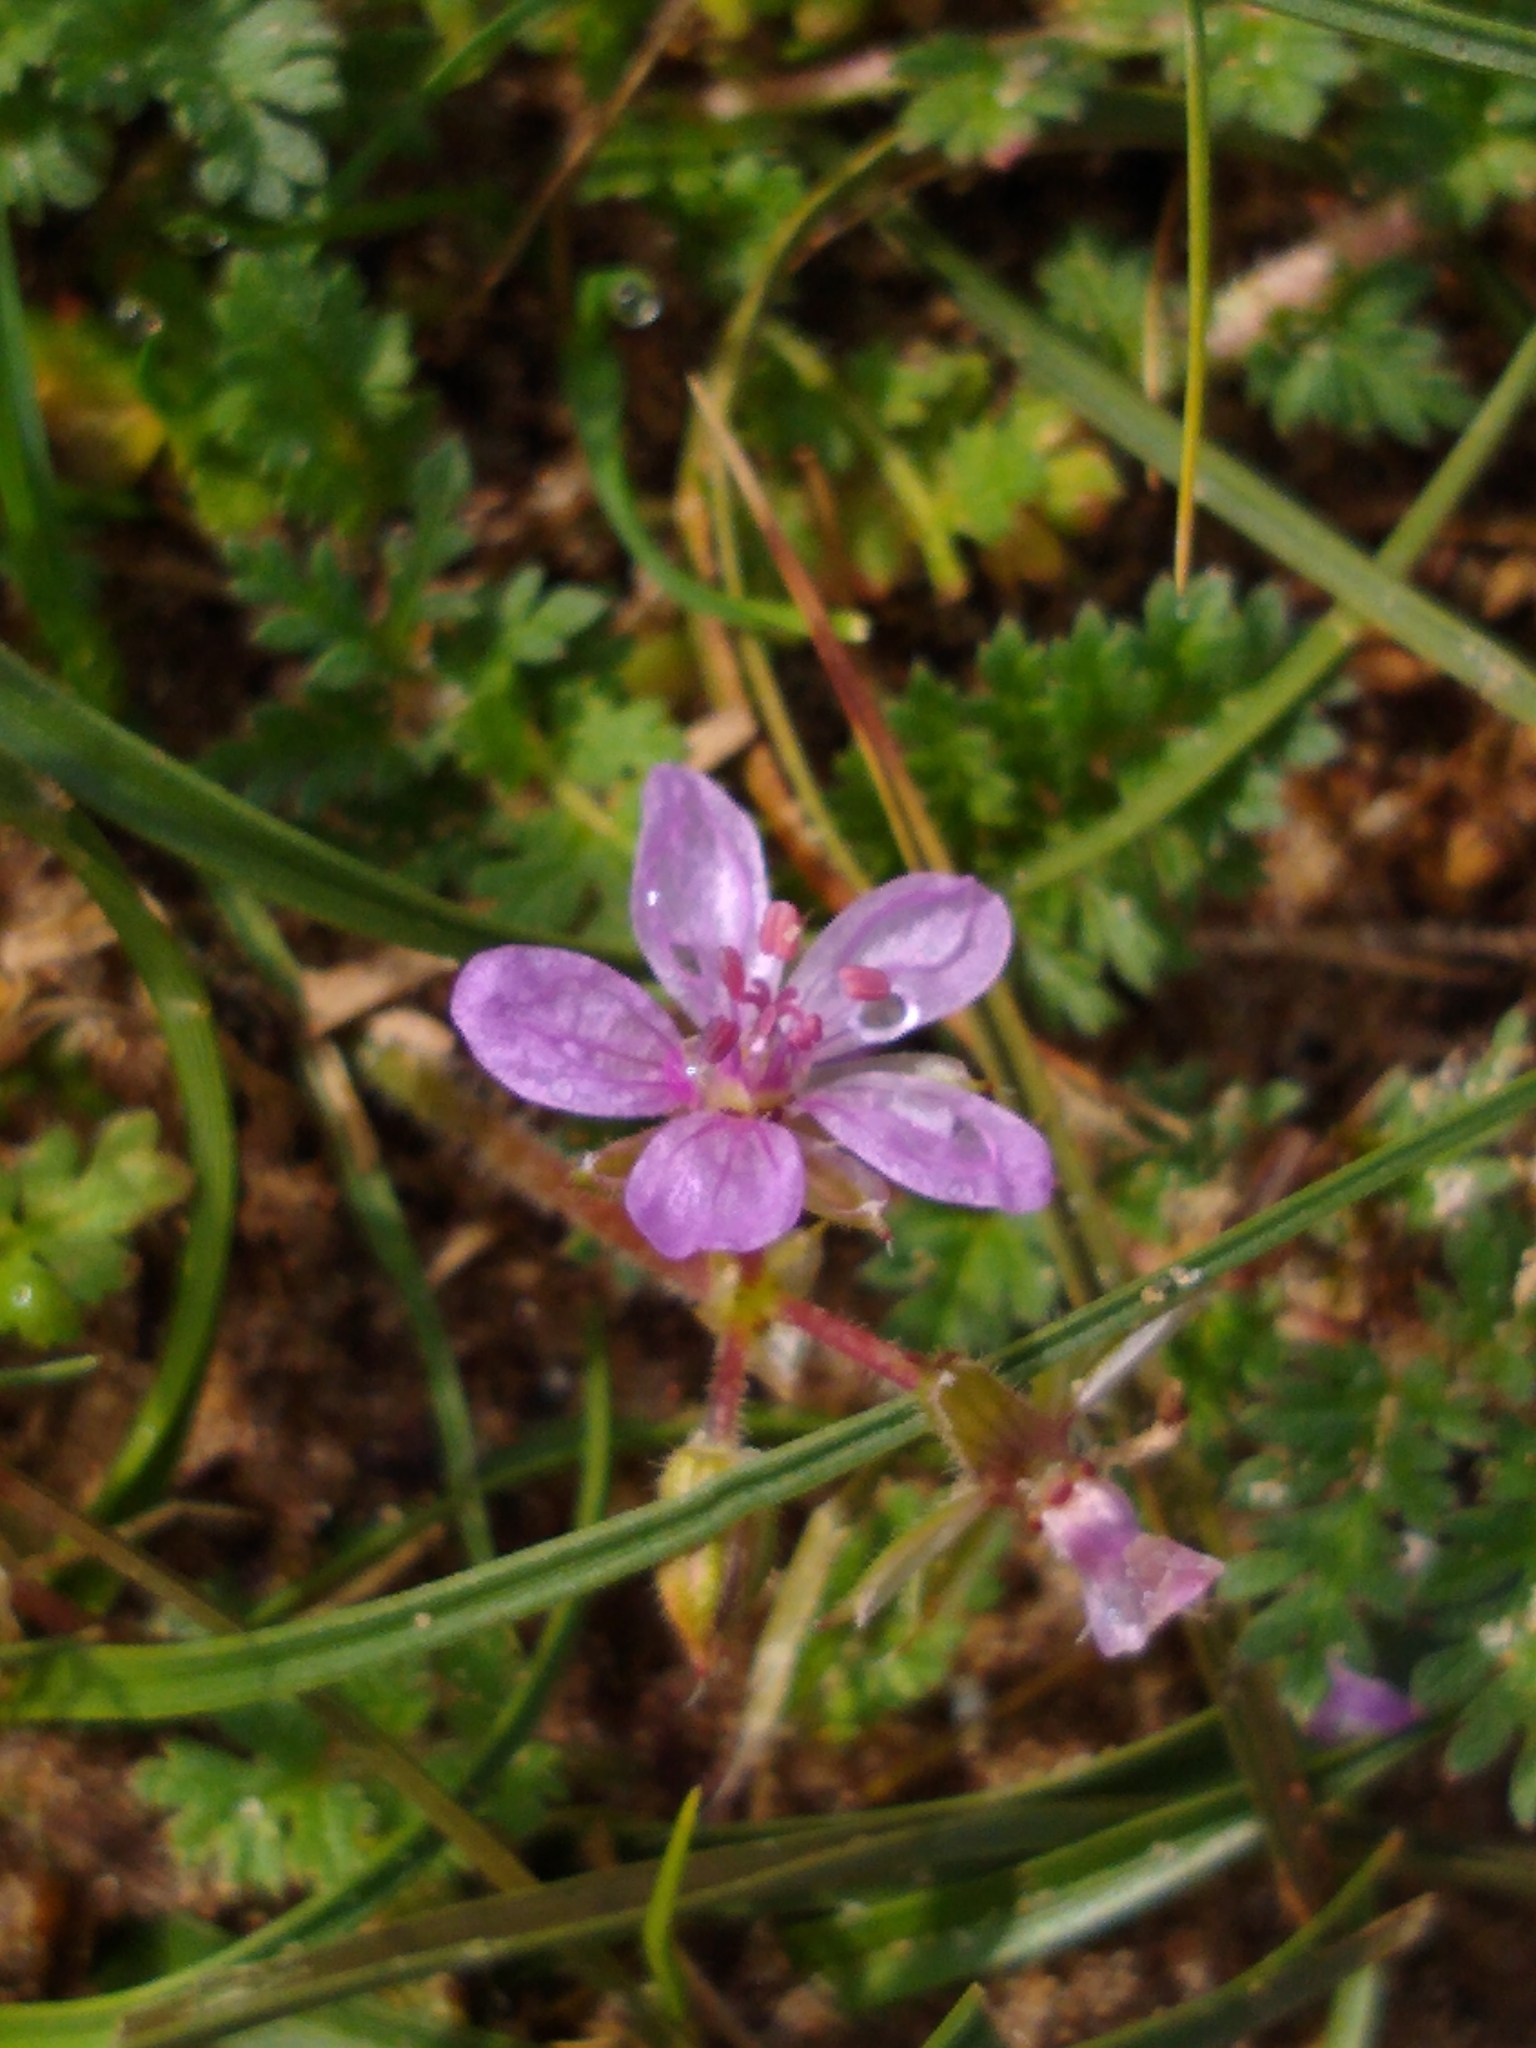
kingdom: Plantae
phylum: Tracheophyta
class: Magnoliopsida
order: Geraniales
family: Geraniaceae
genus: Erodium
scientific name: Erodium cicutarium
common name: Common stork's-bill
